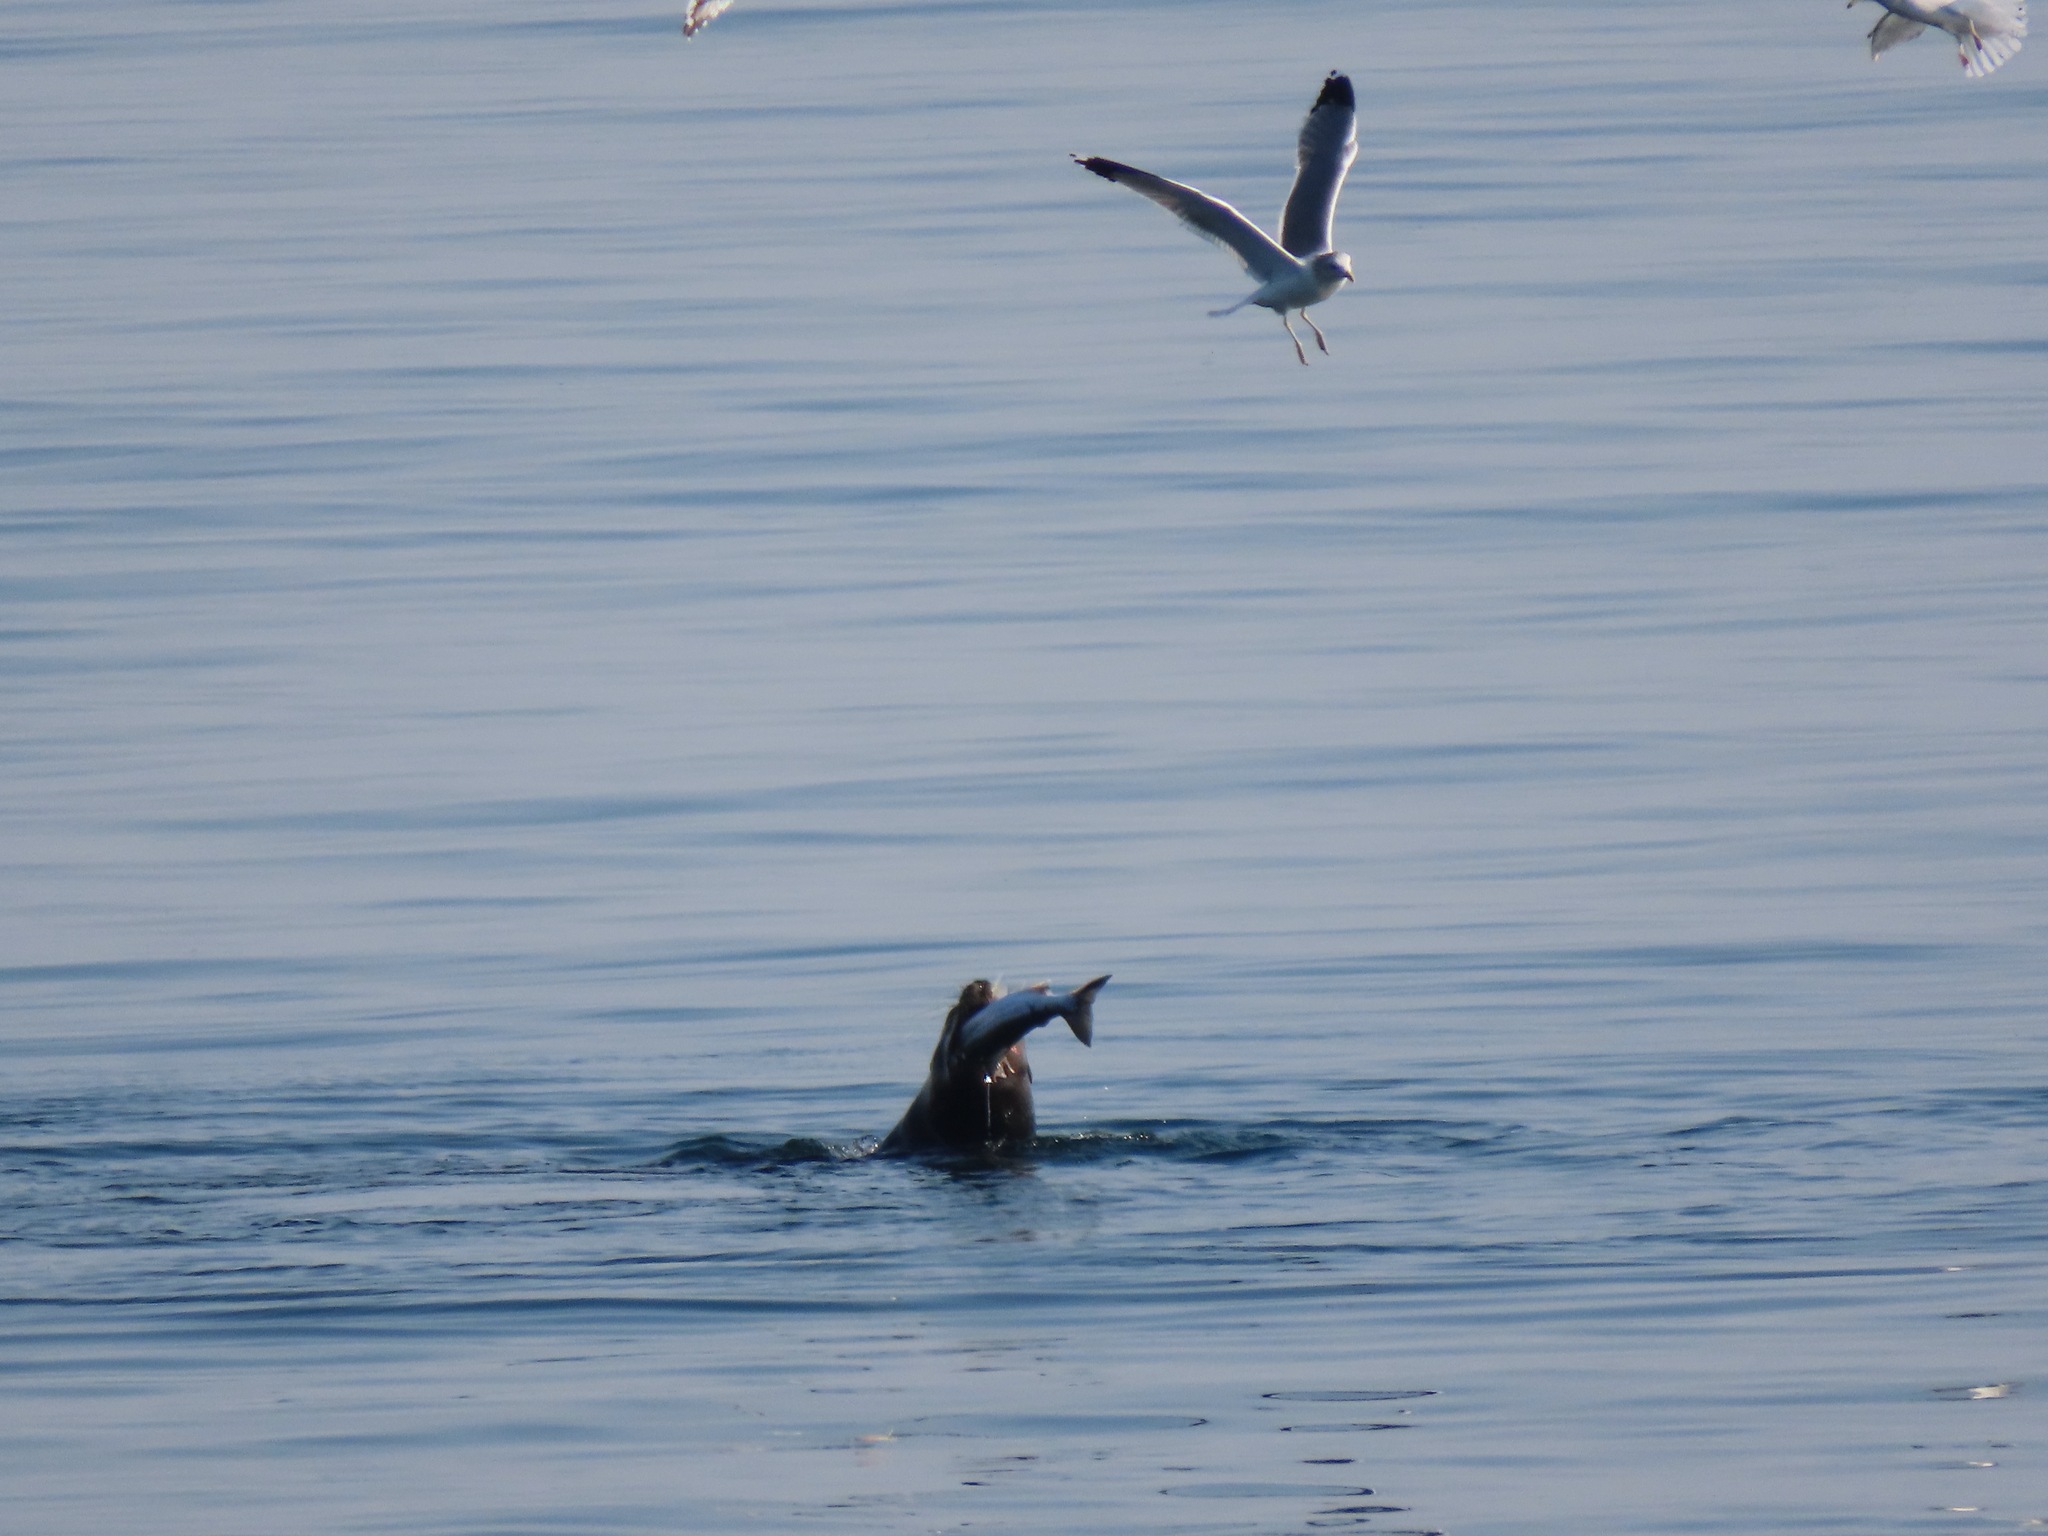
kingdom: Animalia
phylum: Chordata
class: Mammalia
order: Carnivora
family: Otariidae
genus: Eumetopias
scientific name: Eumetopias jubatus
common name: Steller sea lion
